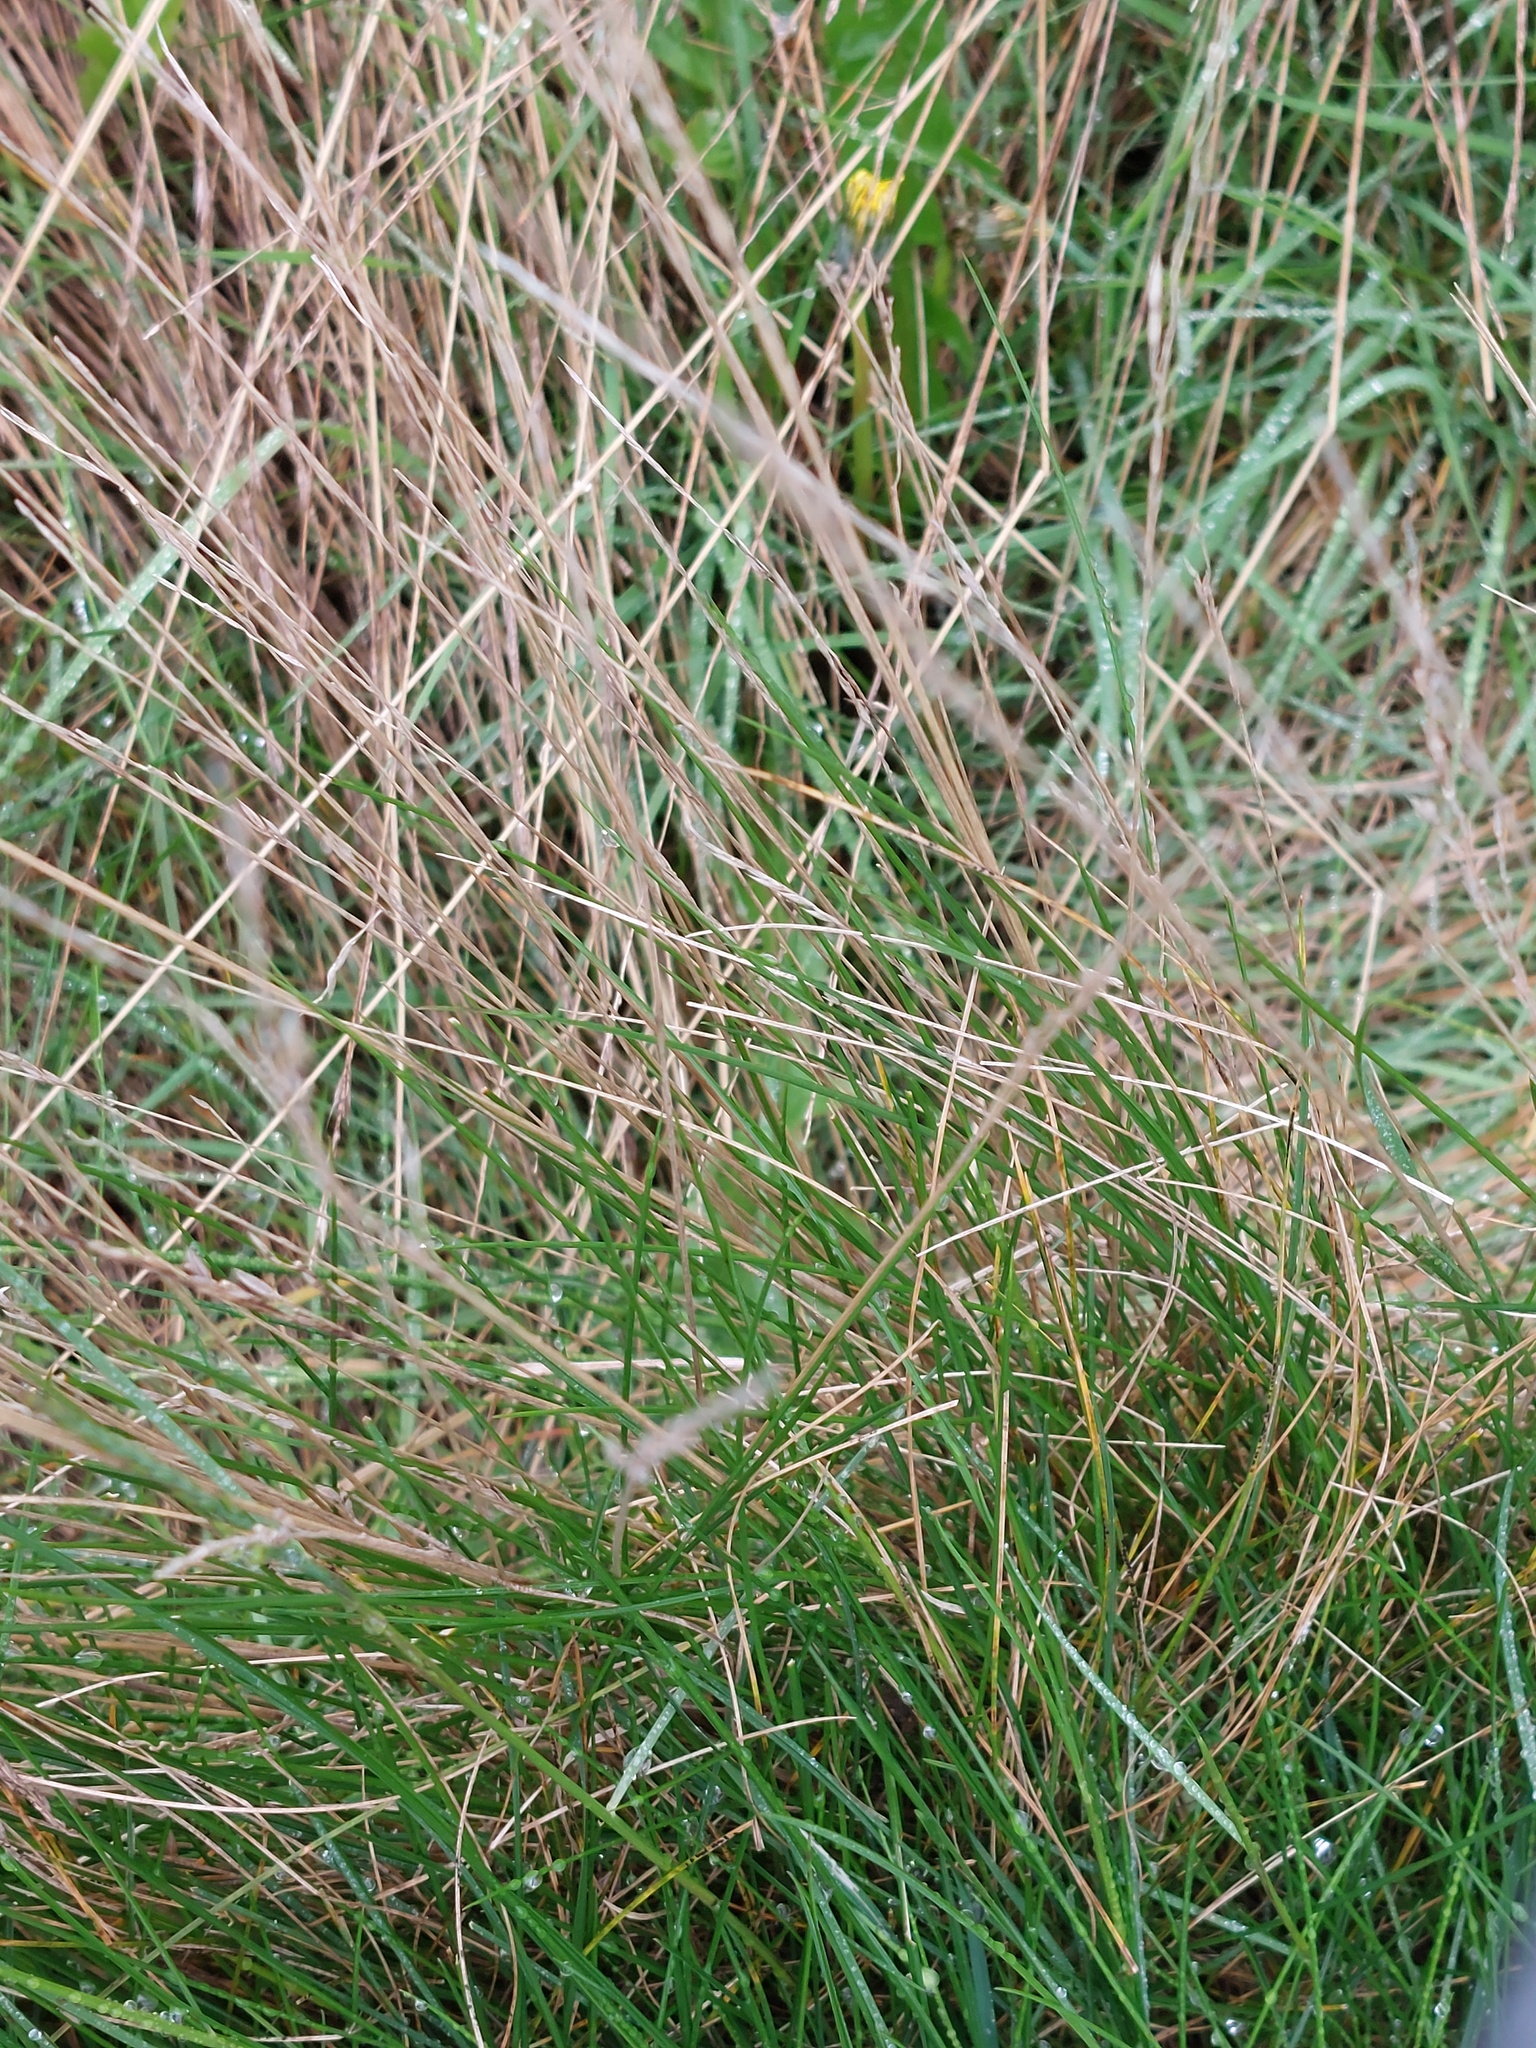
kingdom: Plantae
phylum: Tracheophyta
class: Liliopsida
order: Poales
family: Poaceae
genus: Festuca
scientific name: Festuca rubra
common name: Red fescue
